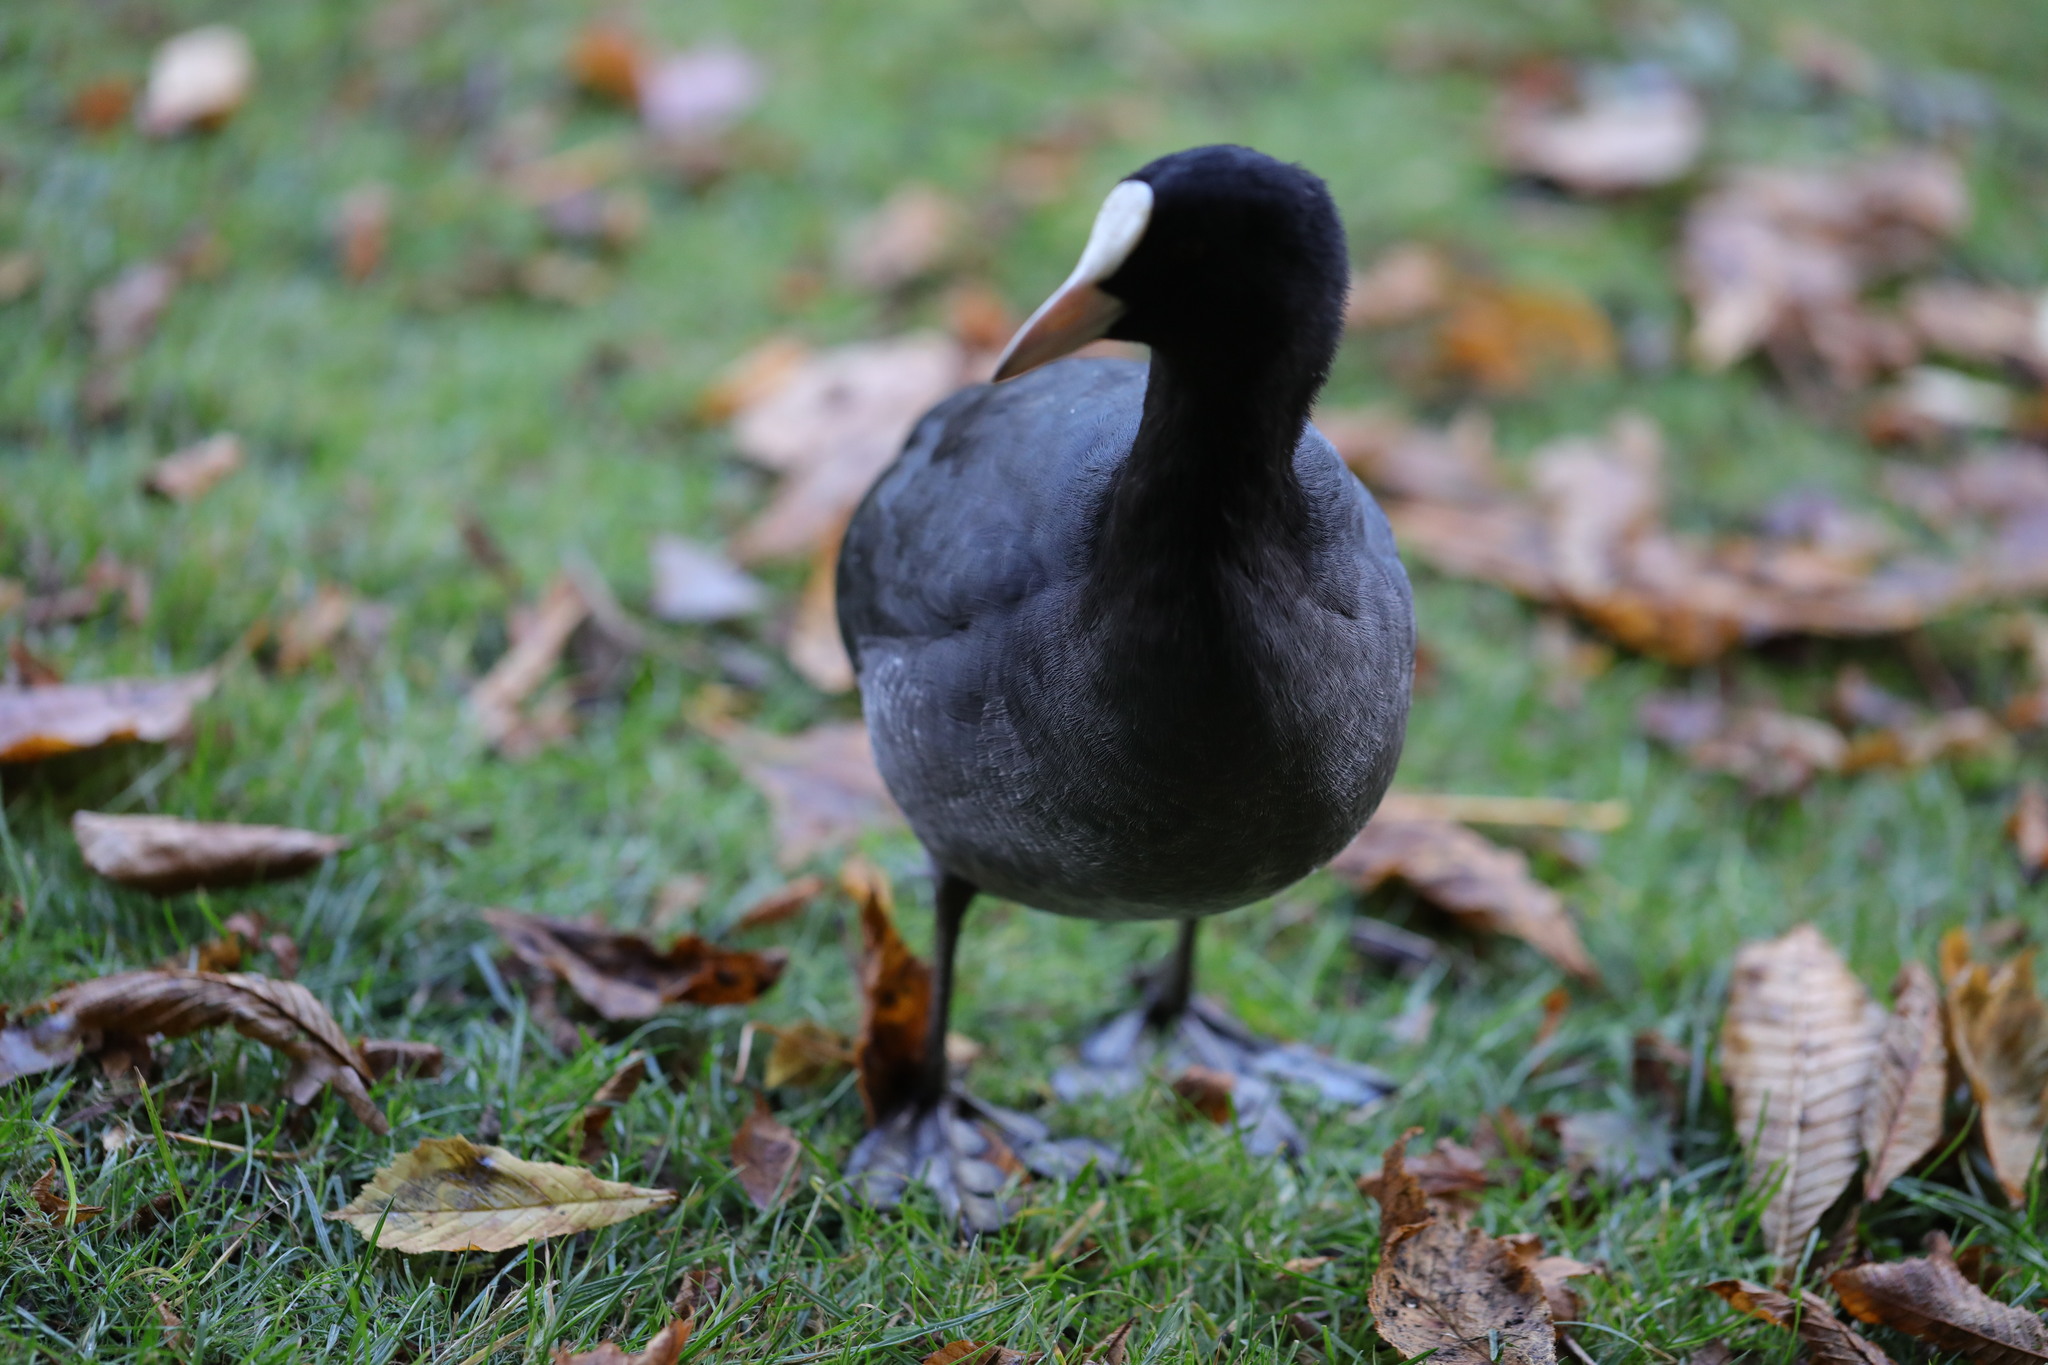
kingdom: Animalia
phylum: Chordata
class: Aves
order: Gruiformes
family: Rallidae
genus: Fulica
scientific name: Fulica atra
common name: Eurasian coot
